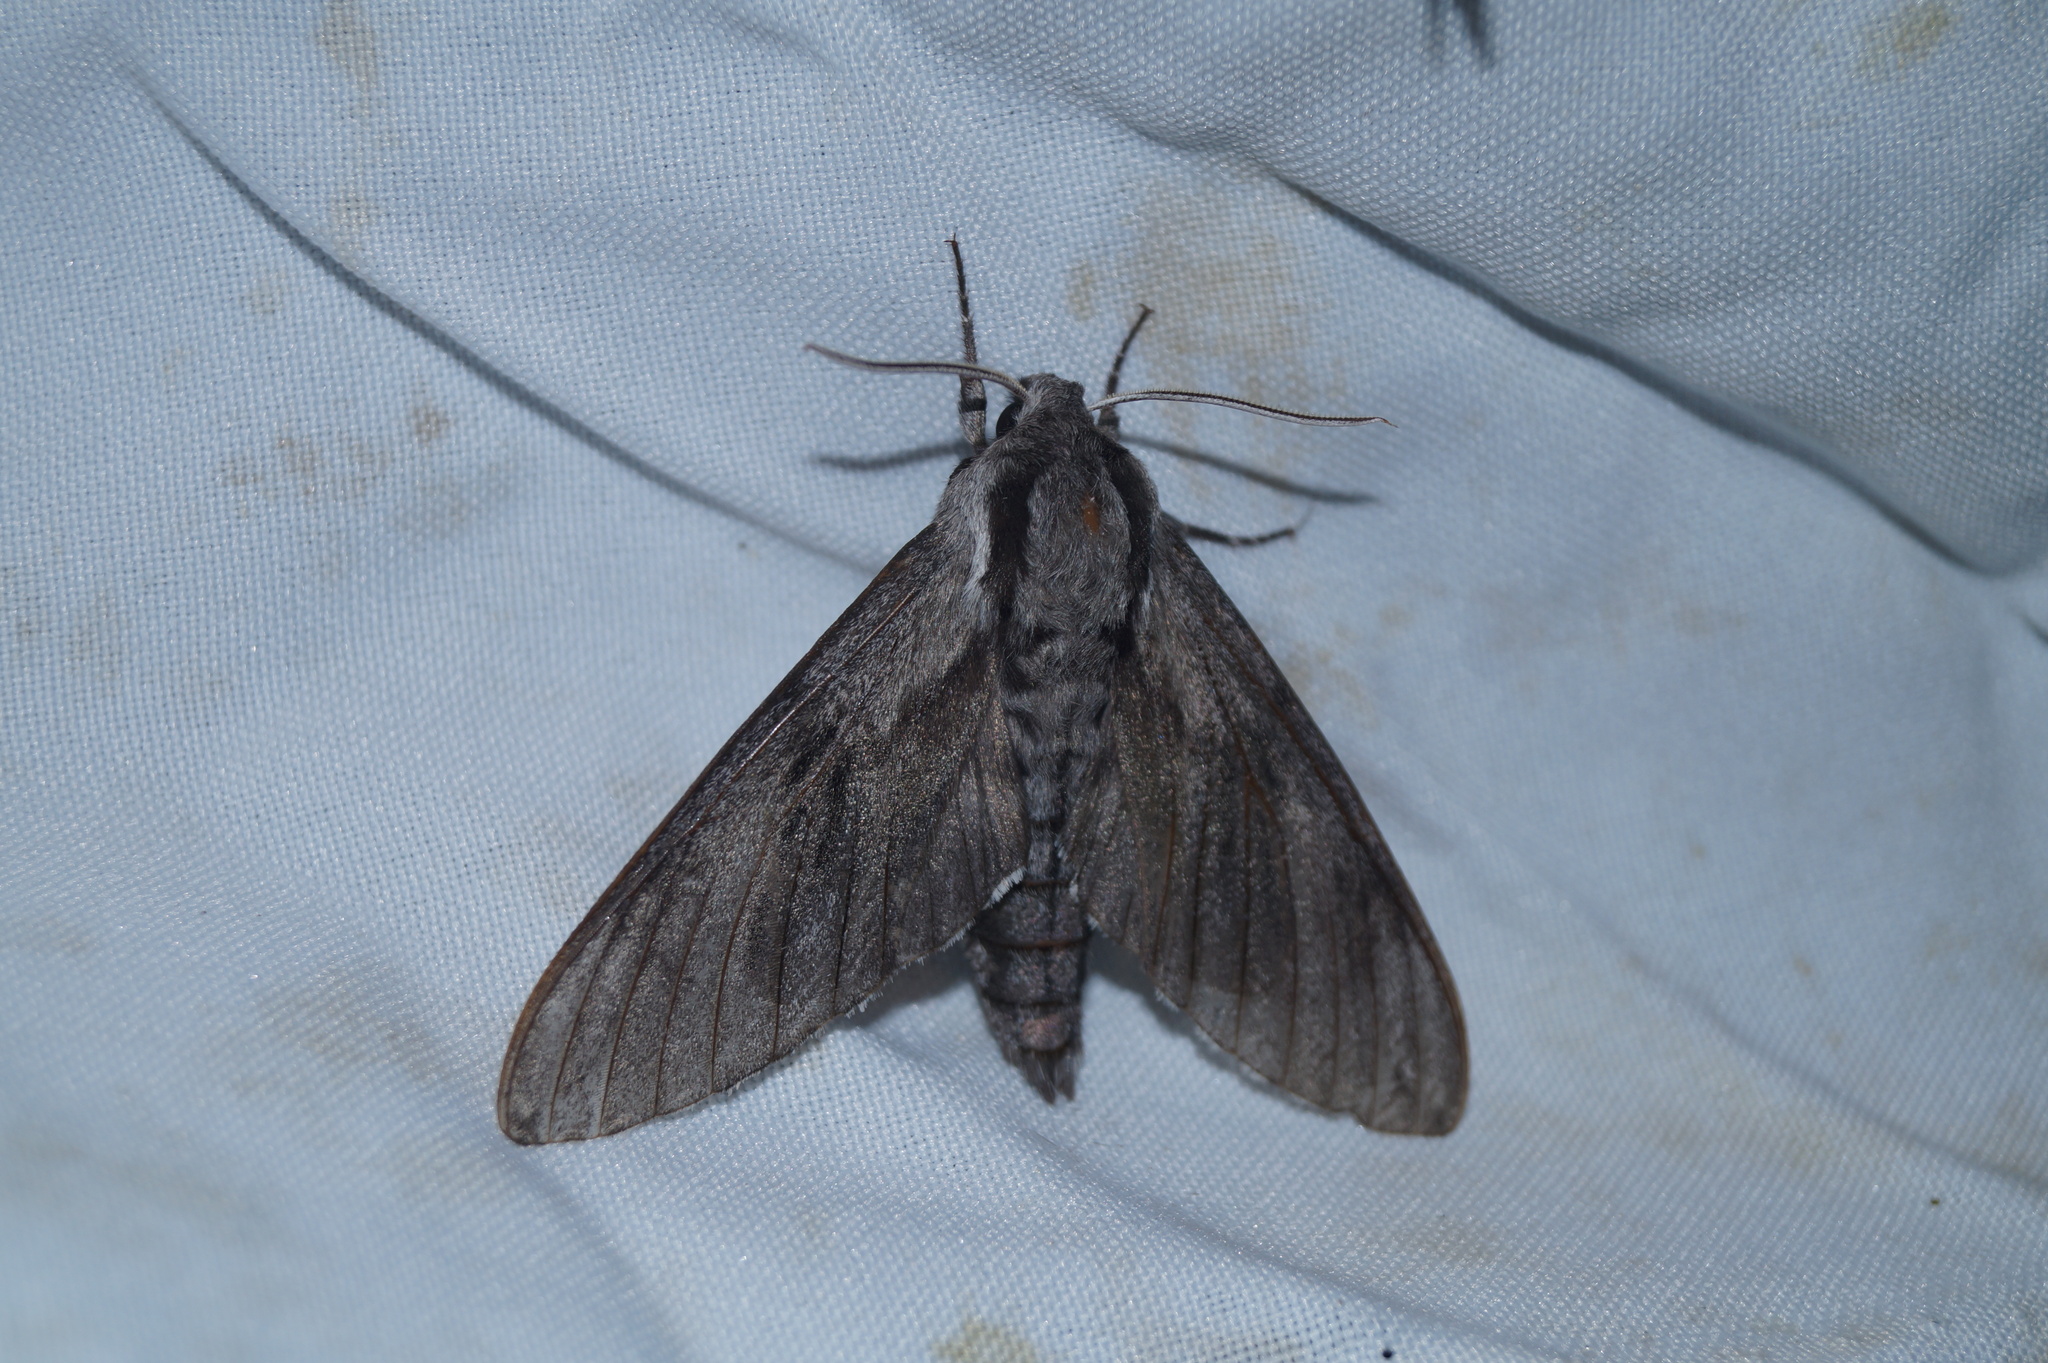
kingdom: Animalia
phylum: Arthropoda
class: Insecta
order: Lepidoptera
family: Sphingidae
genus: Sphinx
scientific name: Sphinx pinastri
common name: Pine hawk-moth
